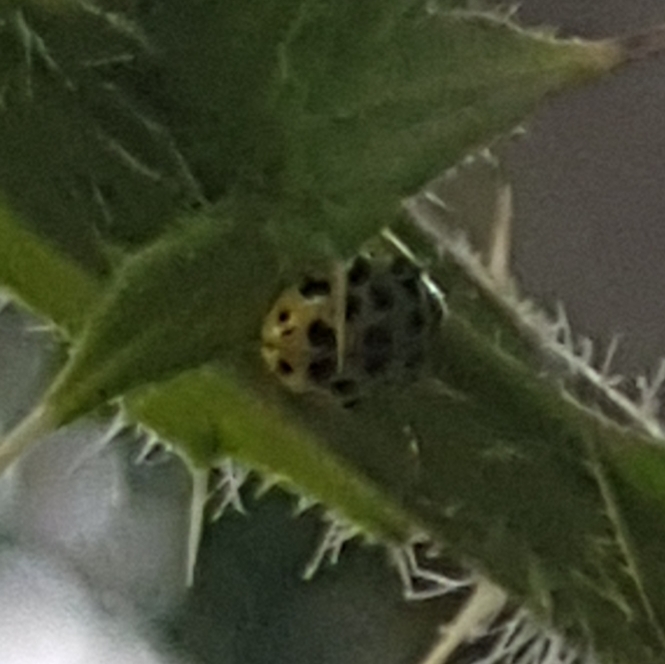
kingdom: Animalia
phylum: Arthropoda
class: Insecta
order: Coleoptera
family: Coccinellidae
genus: Psyllobora
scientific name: Psyllobora vigintiduopunctata
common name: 22-spot ladybird
